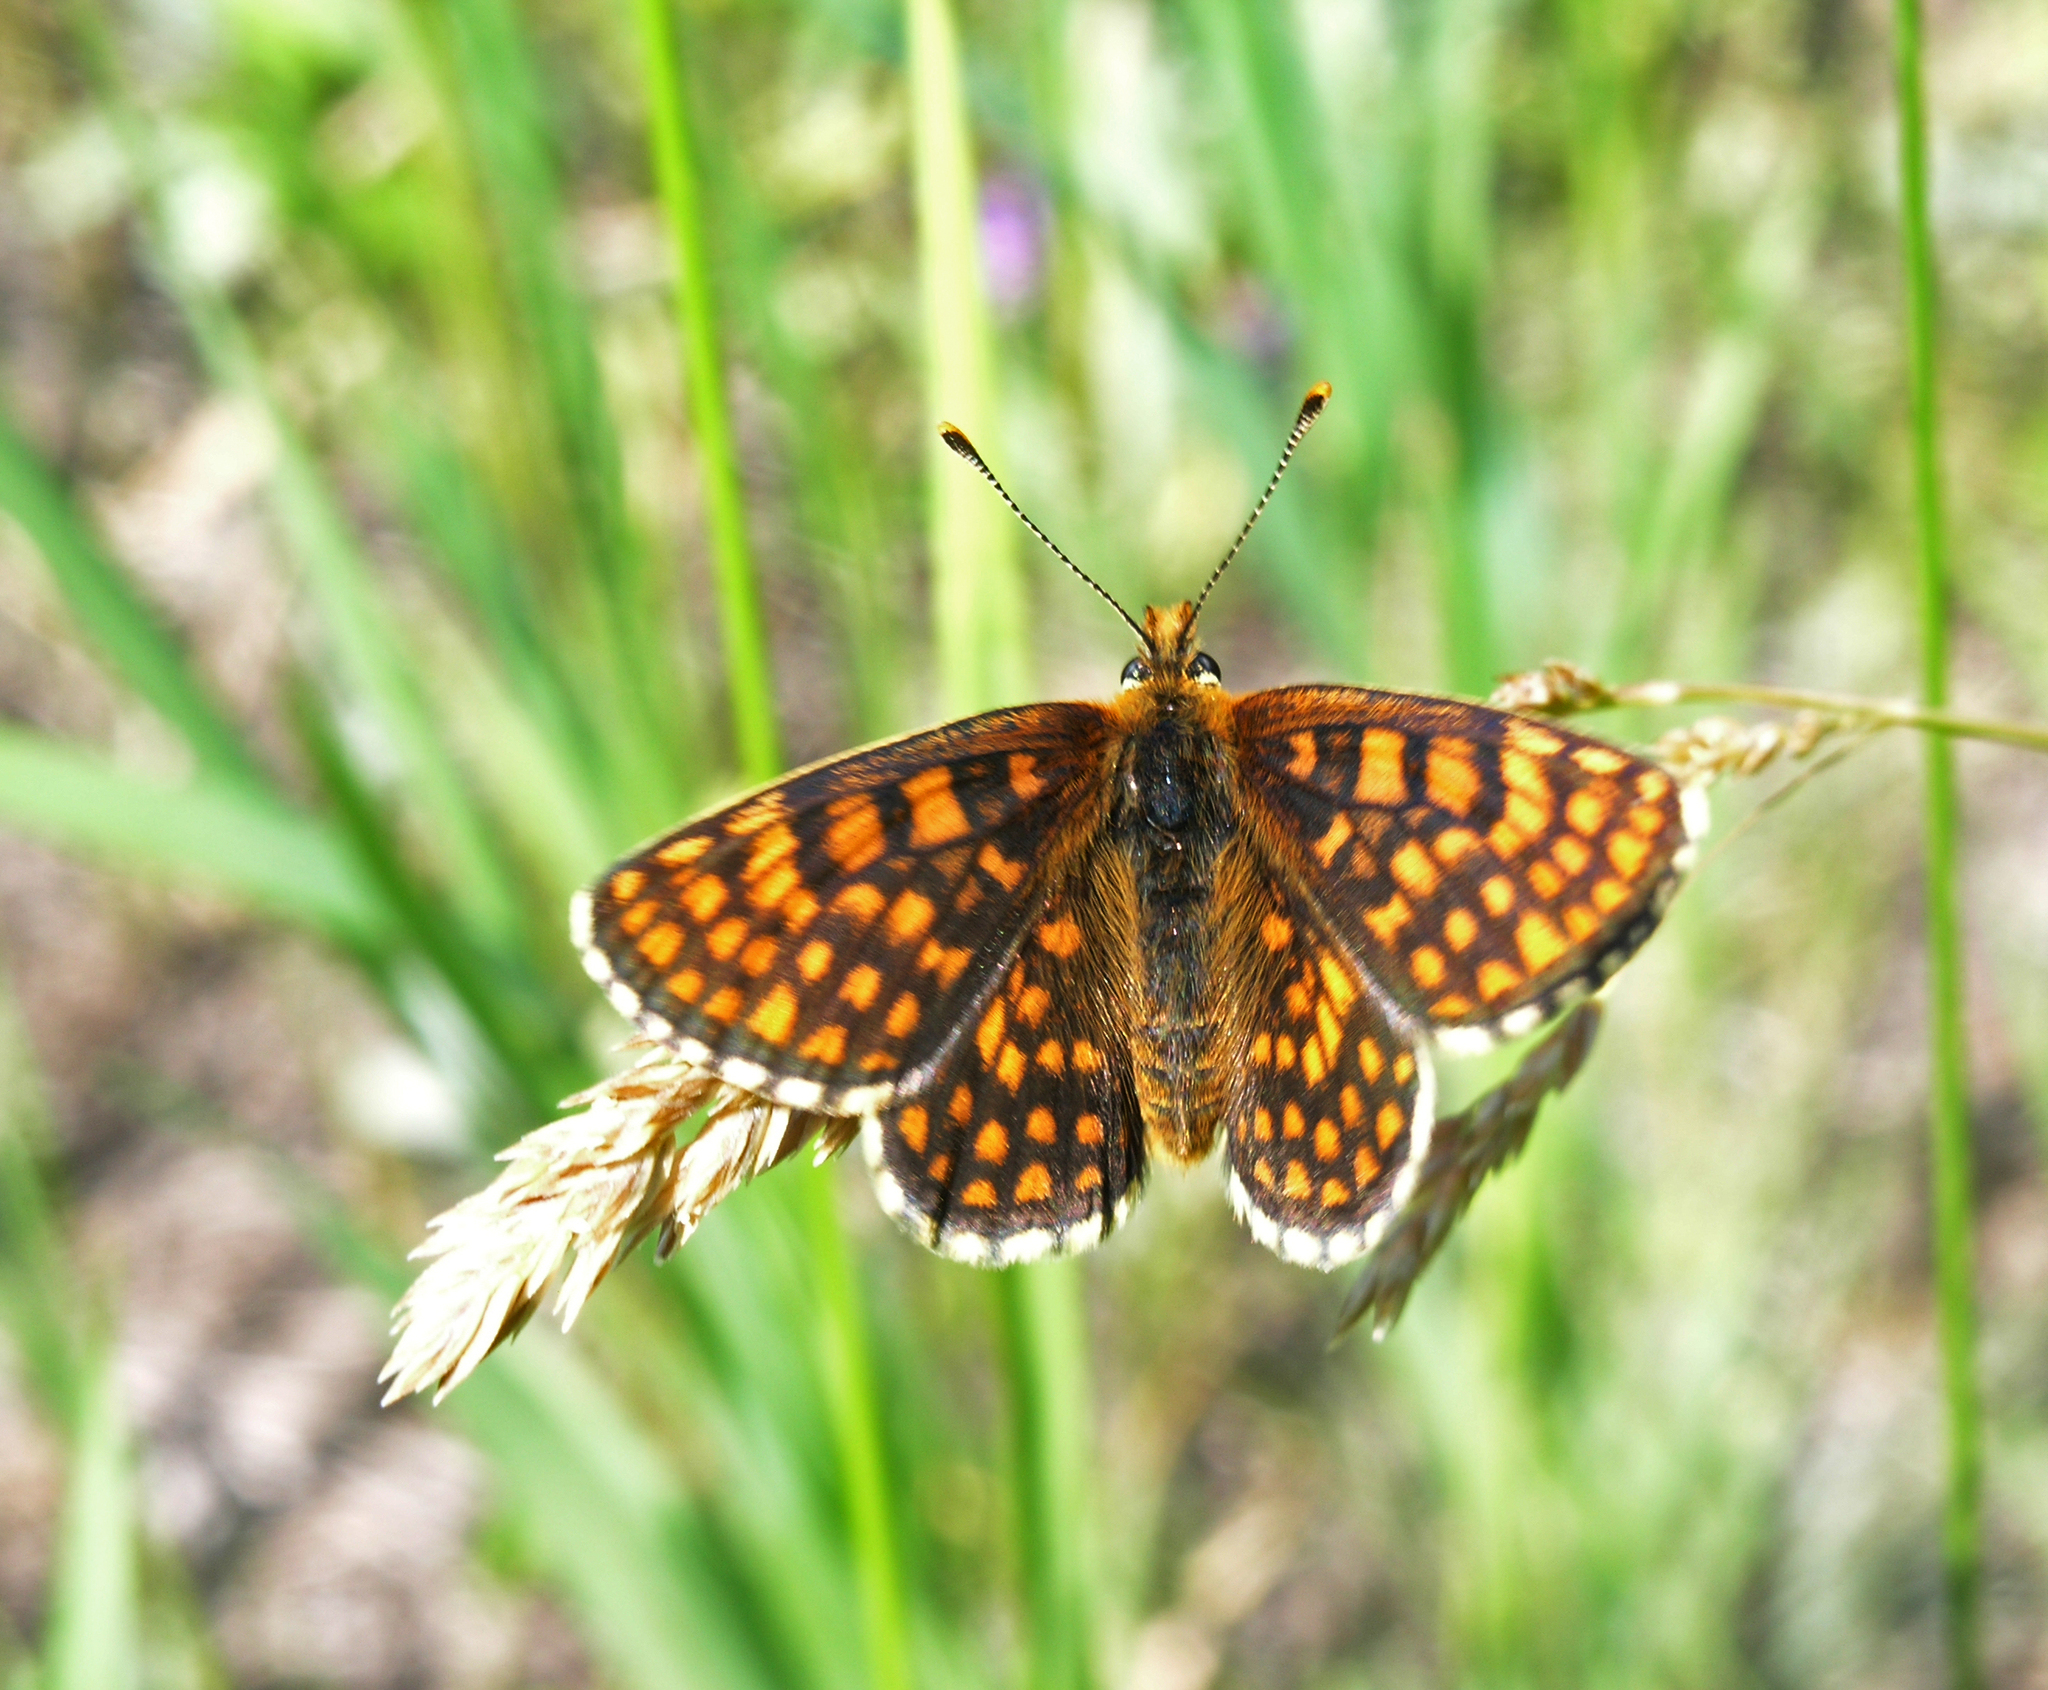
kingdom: Animalia
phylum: Arthropoda
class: Insecta
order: Lepidoptera
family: Nymphalidae
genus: Mellicta
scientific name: Mellicta aurelia
